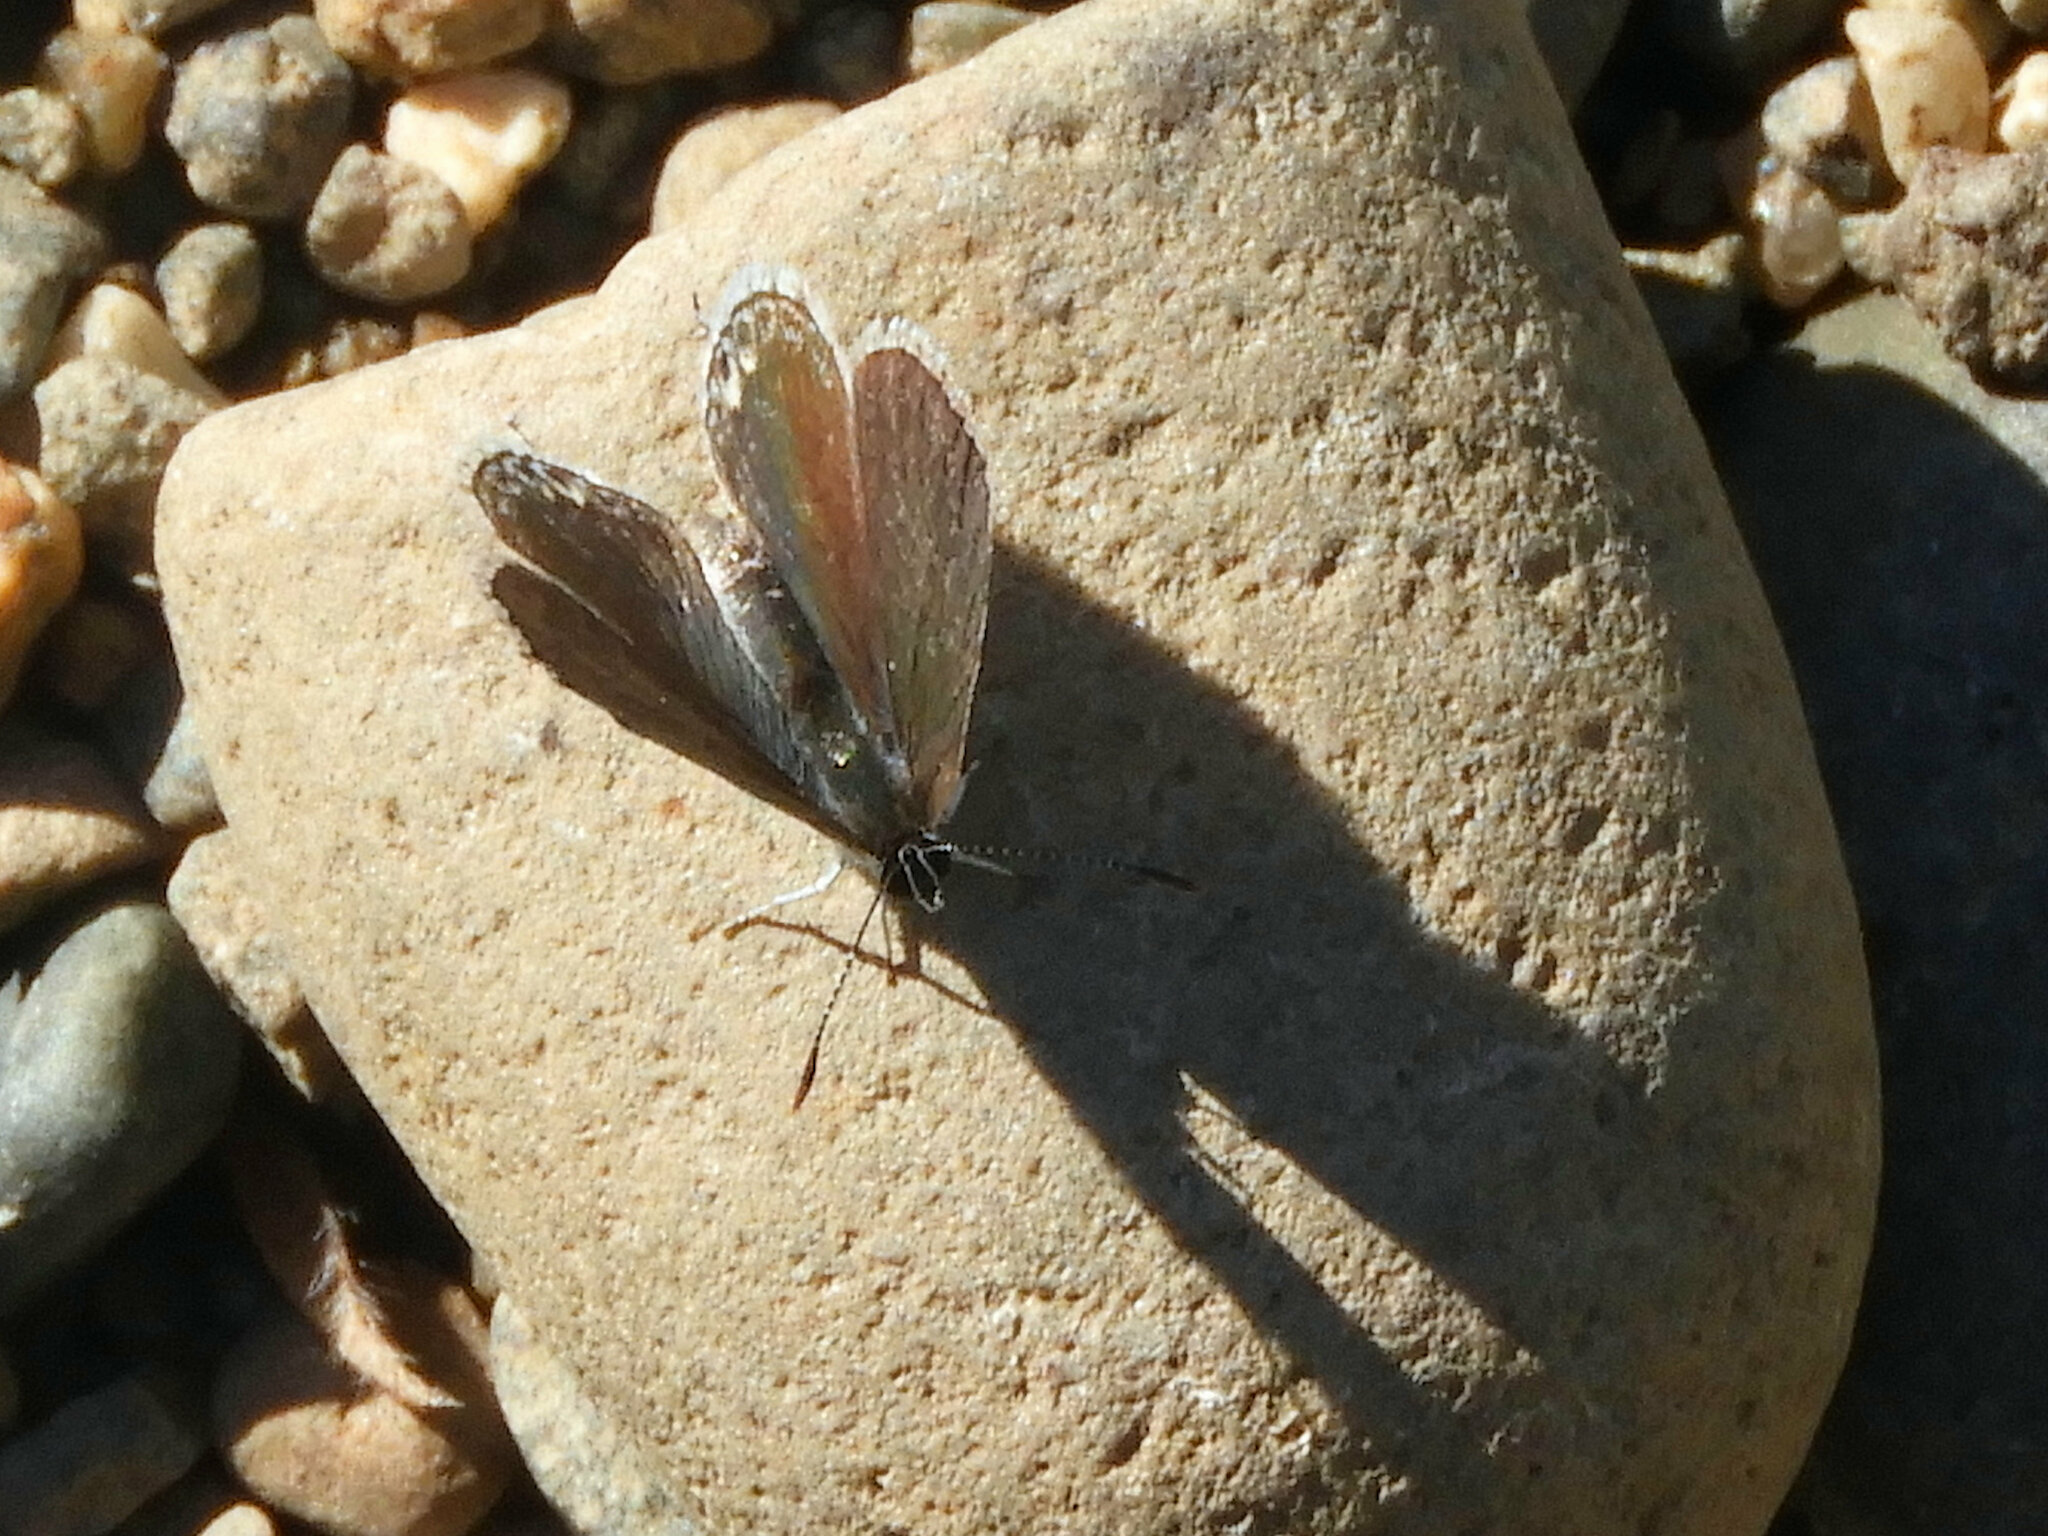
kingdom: Animalia
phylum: Arthropoda
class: Insecta
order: Lepidoptera
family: Lycaenidae
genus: Elkalyce
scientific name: Elkalyce amyntula
